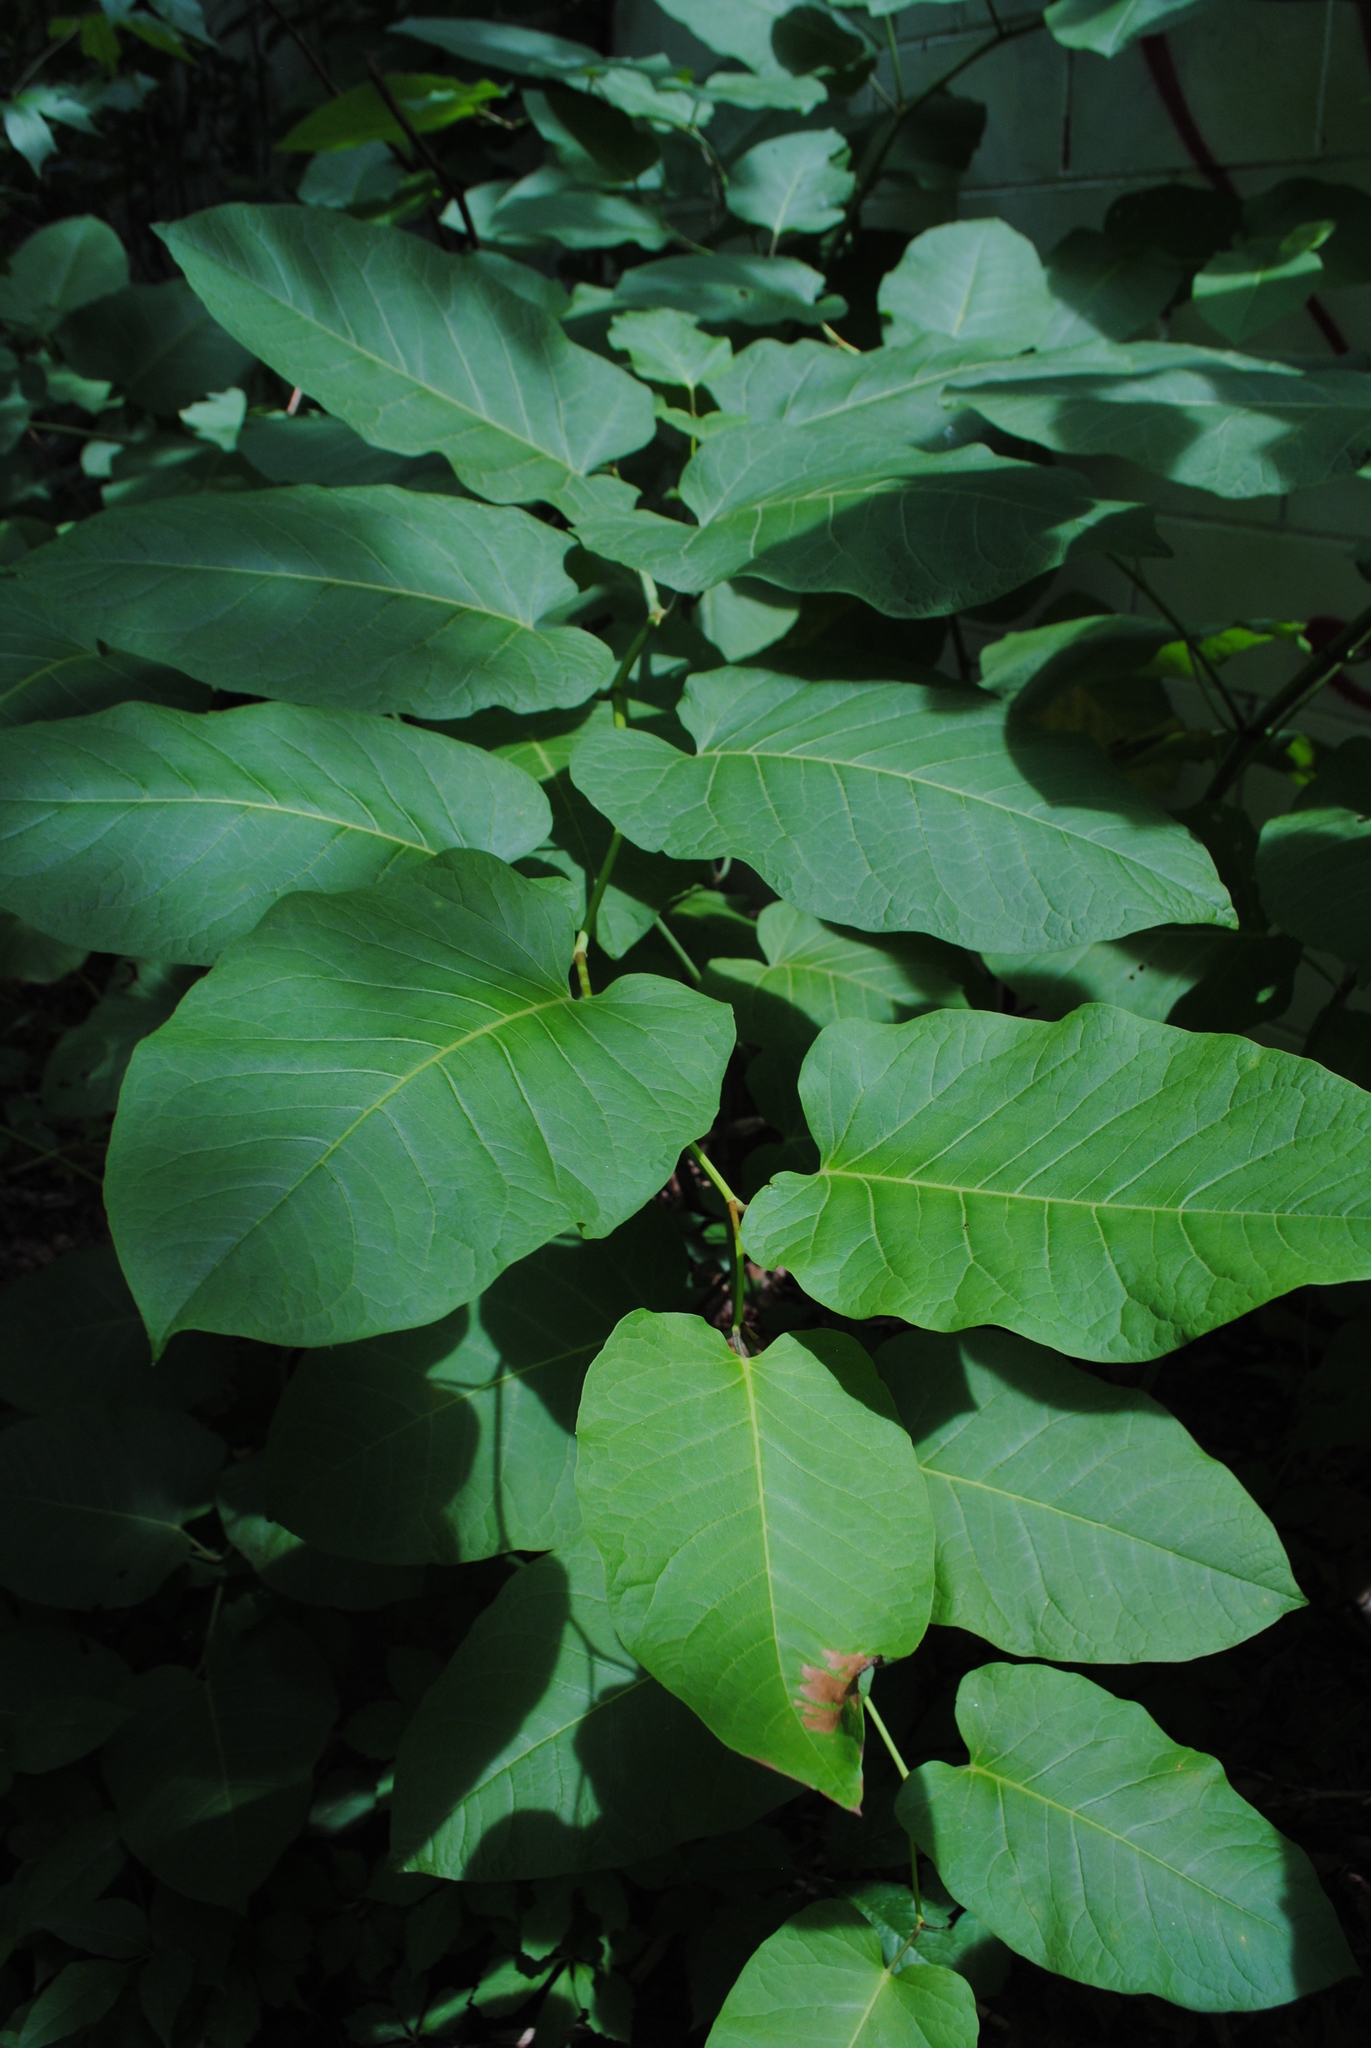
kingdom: Plantae
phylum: Tracheophyta
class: Magnoliopsida
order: Caryophyllales
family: Polygonaceae
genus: Reynoutria
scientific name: Reynoutria sachalinensis
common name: Giant knotweed
